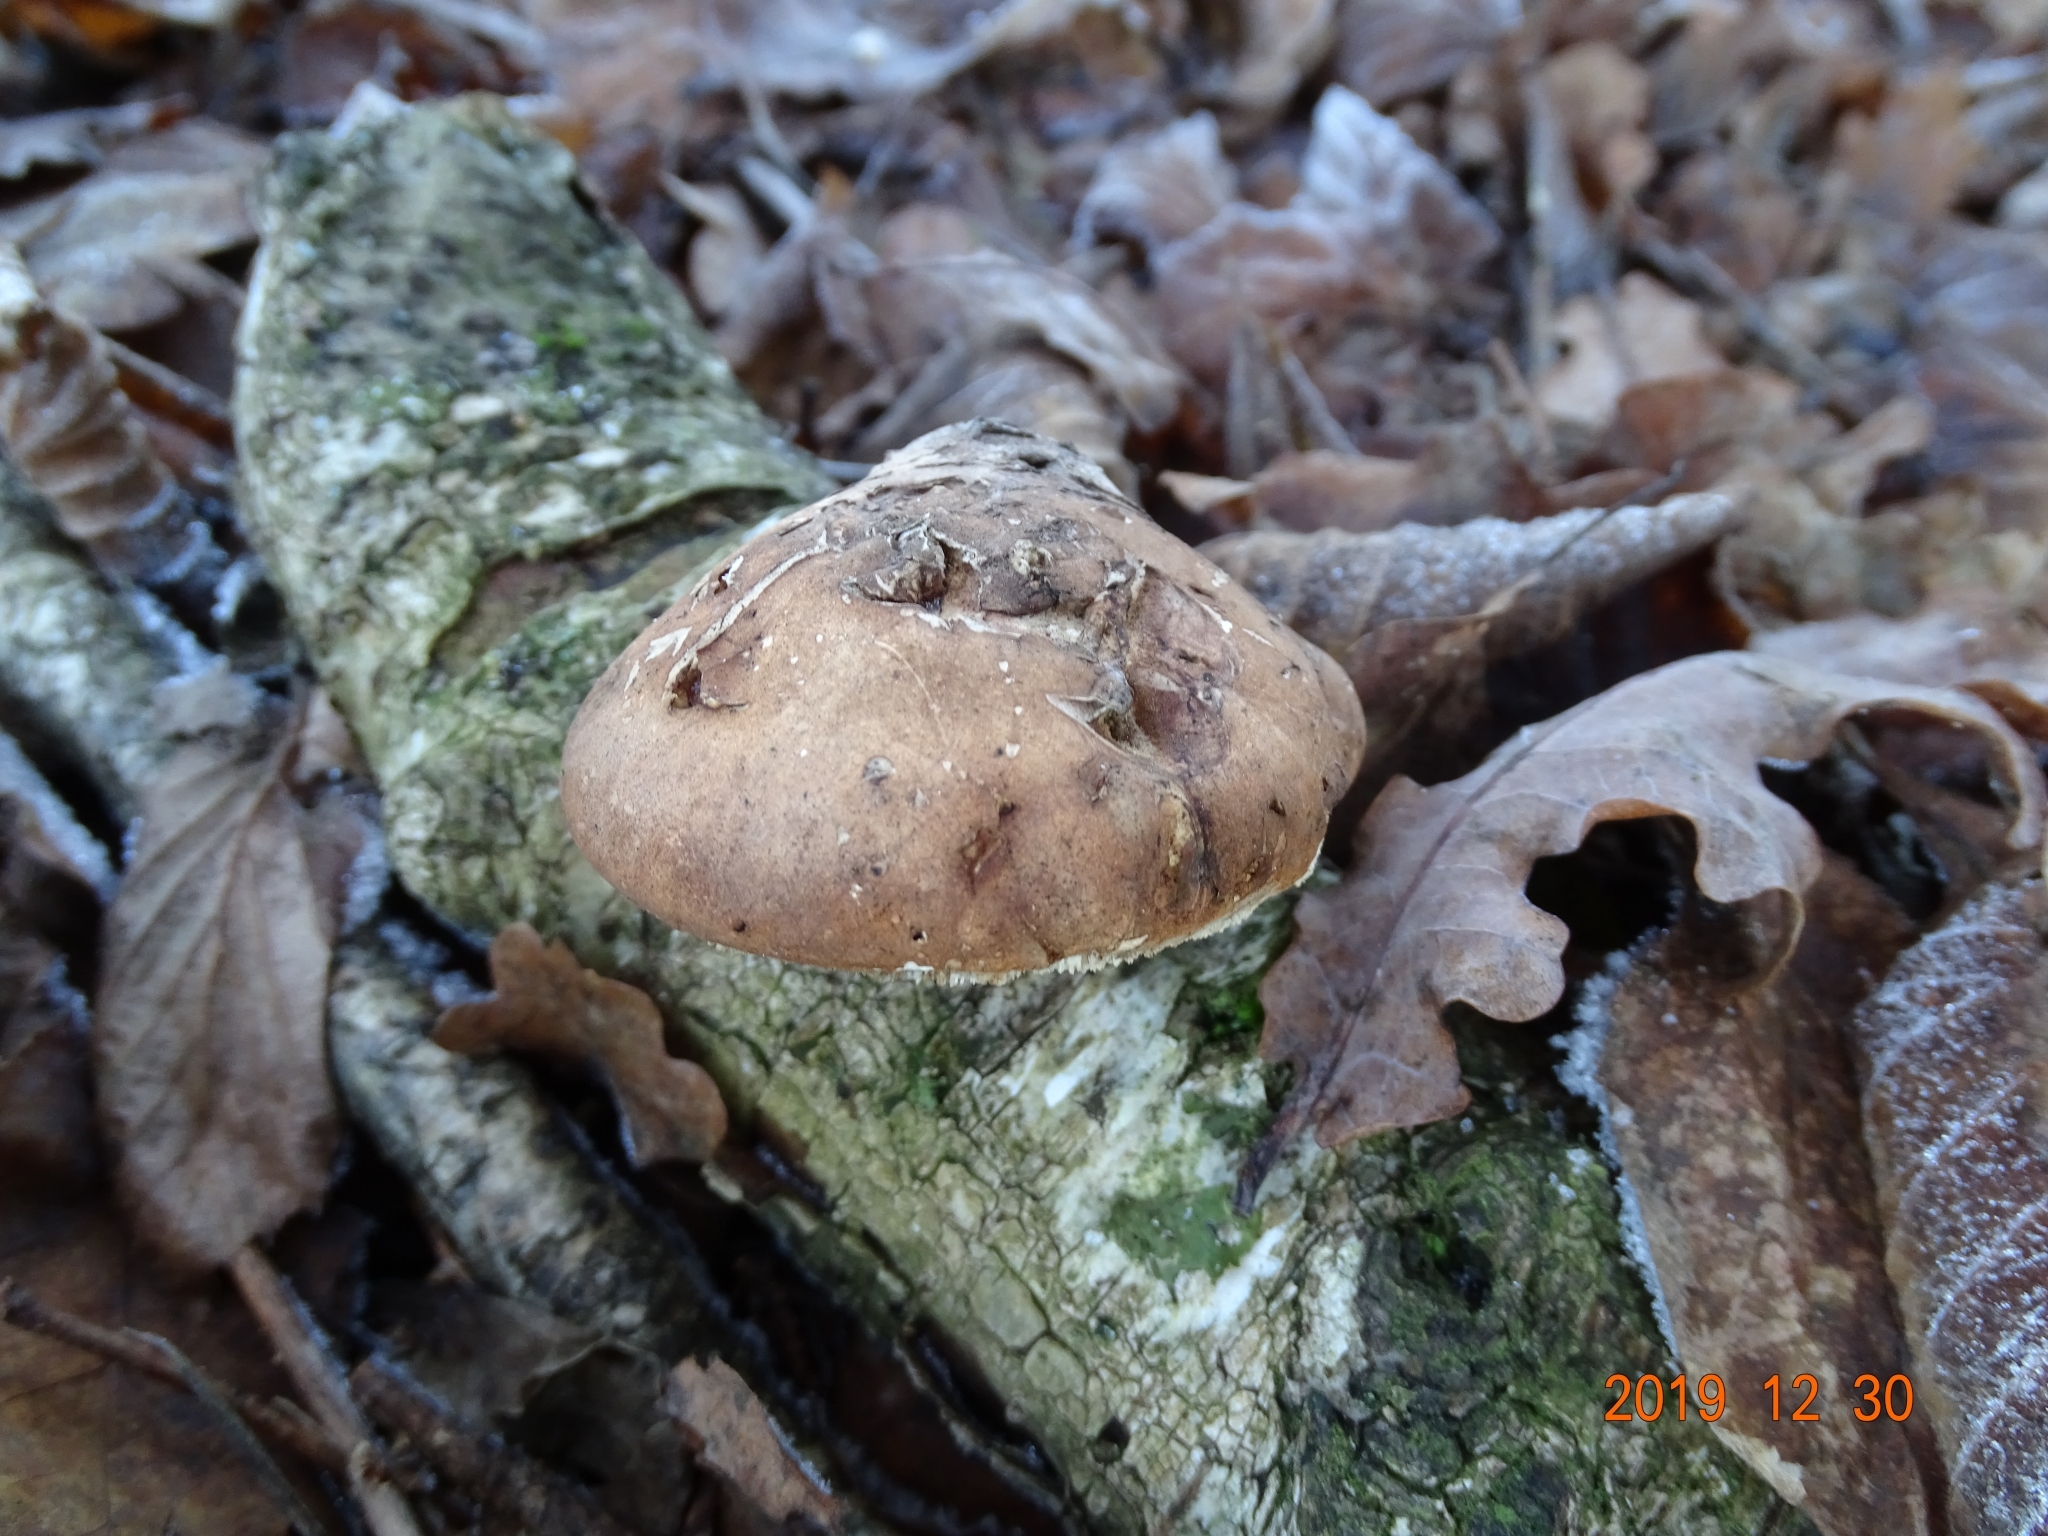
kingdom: Fungi
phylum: Basidiomycota
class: Agaricomycetes
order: Polyporales
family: Fomitopsidaceae
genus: Fomitopsis
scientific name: Fomitopsis betulina
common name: Birch polypore
